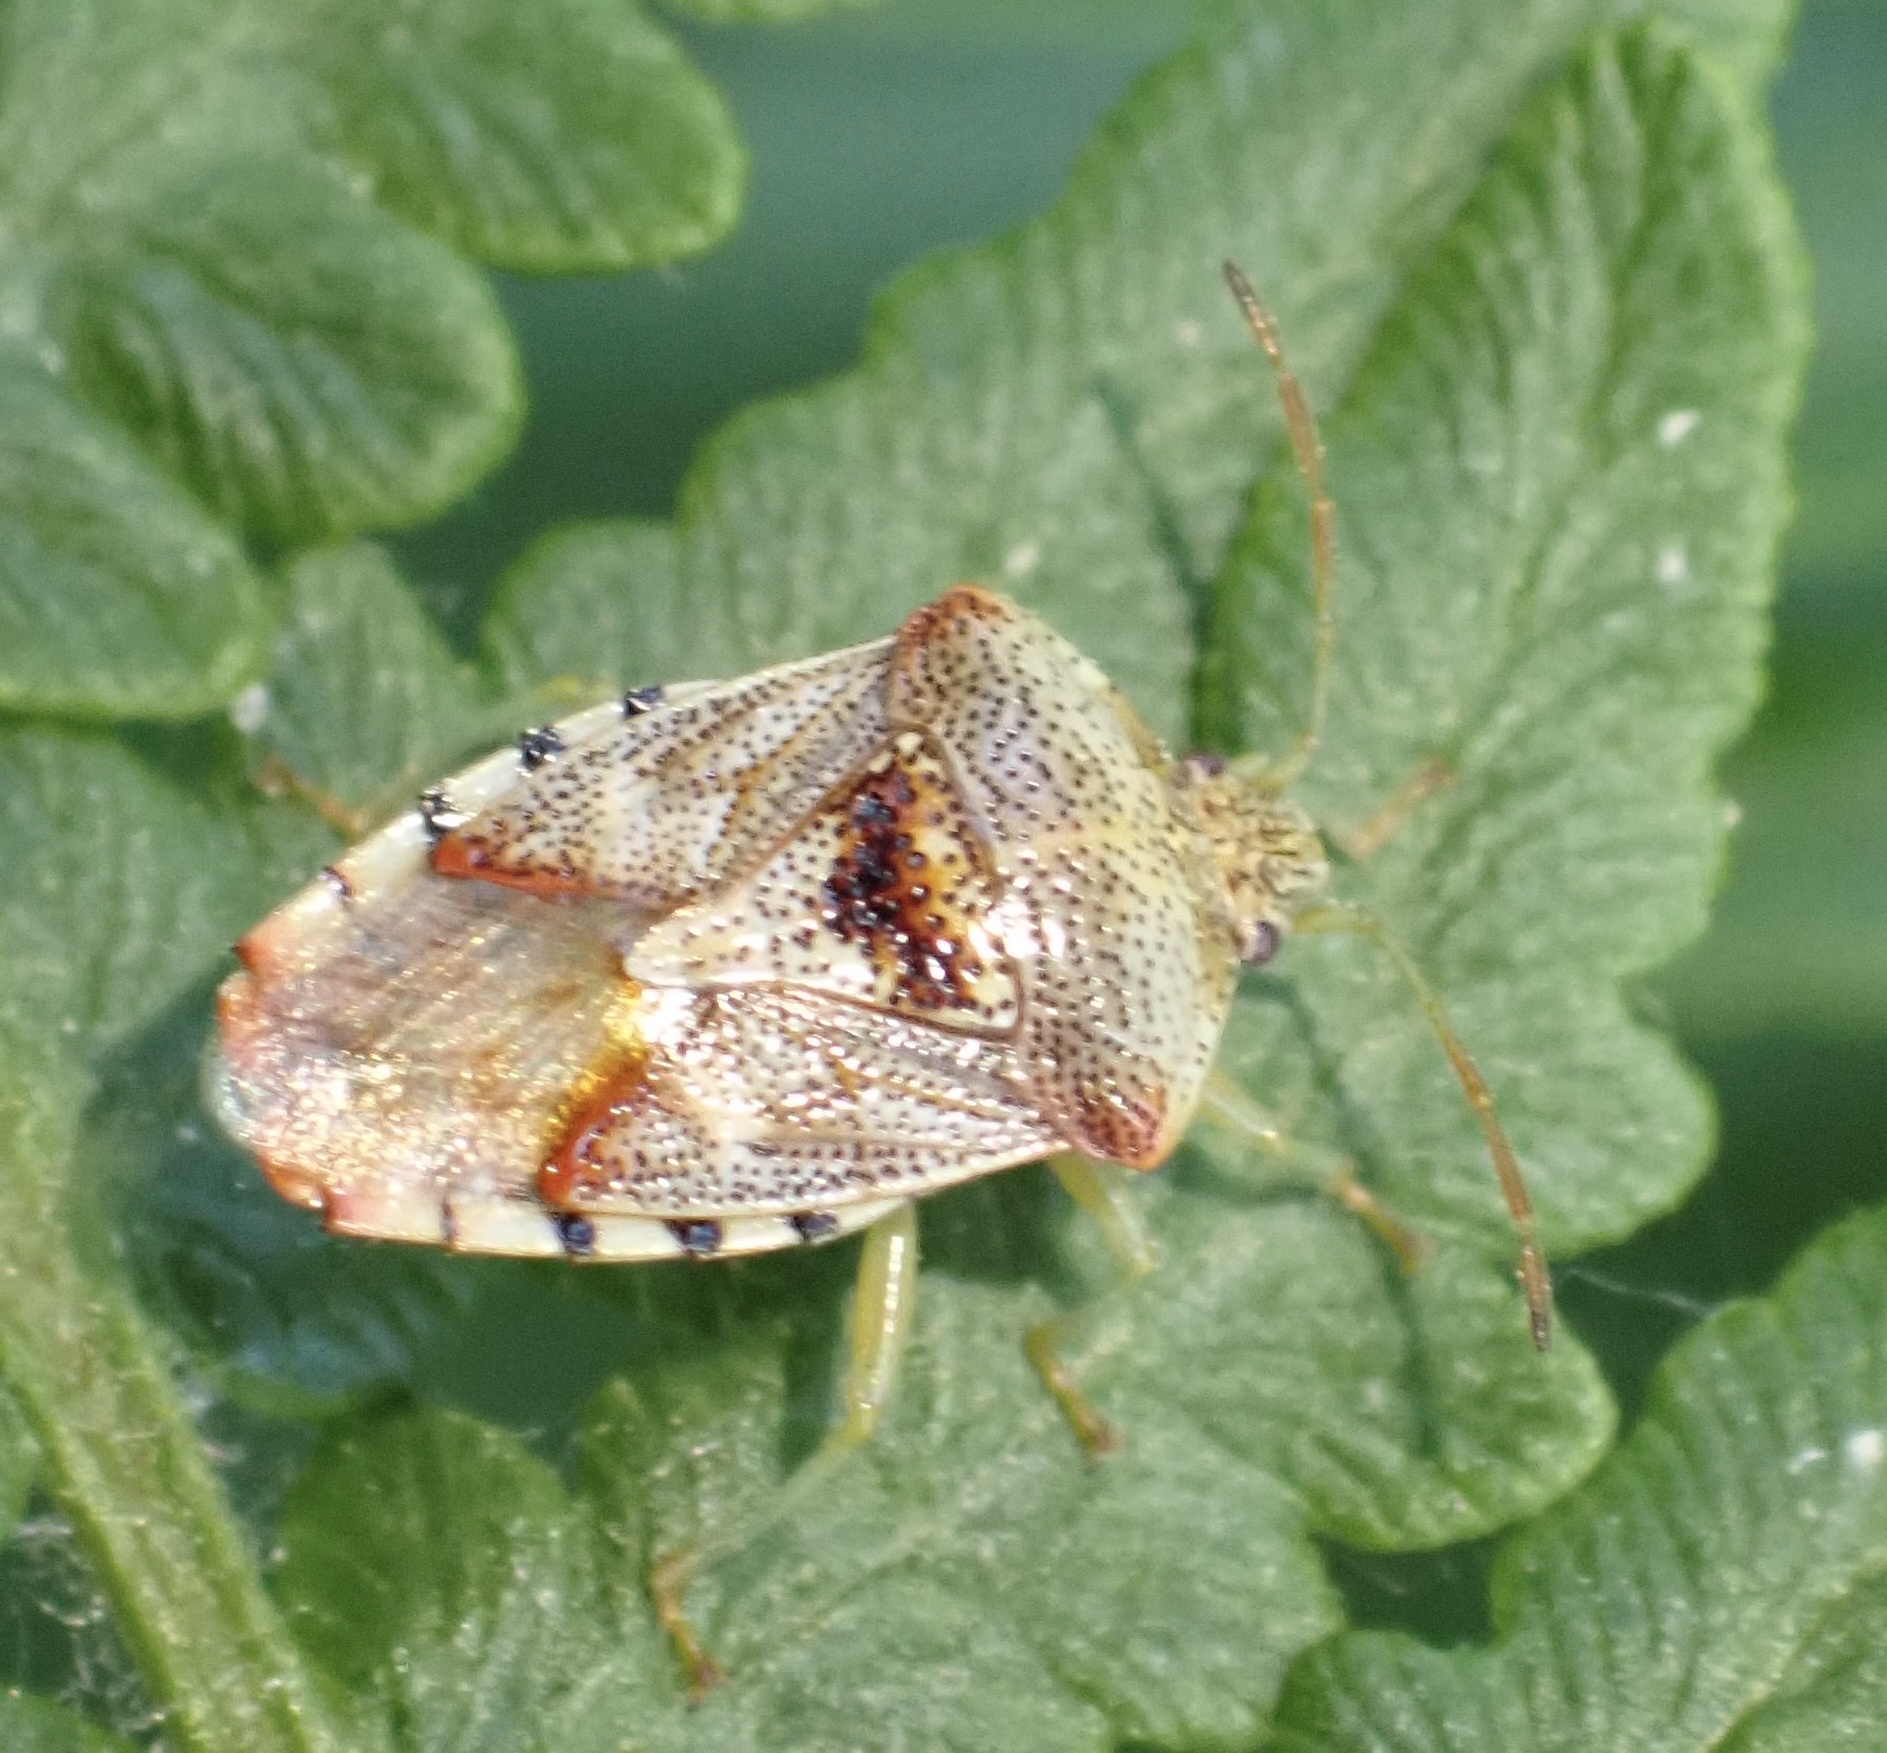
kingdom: Animalia
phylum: Arthropoda
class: Insecta
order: Hemiptera
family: Acanthosomatidae
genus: Elasmucha
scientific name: Elasmucha grisea
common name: Parent bug
